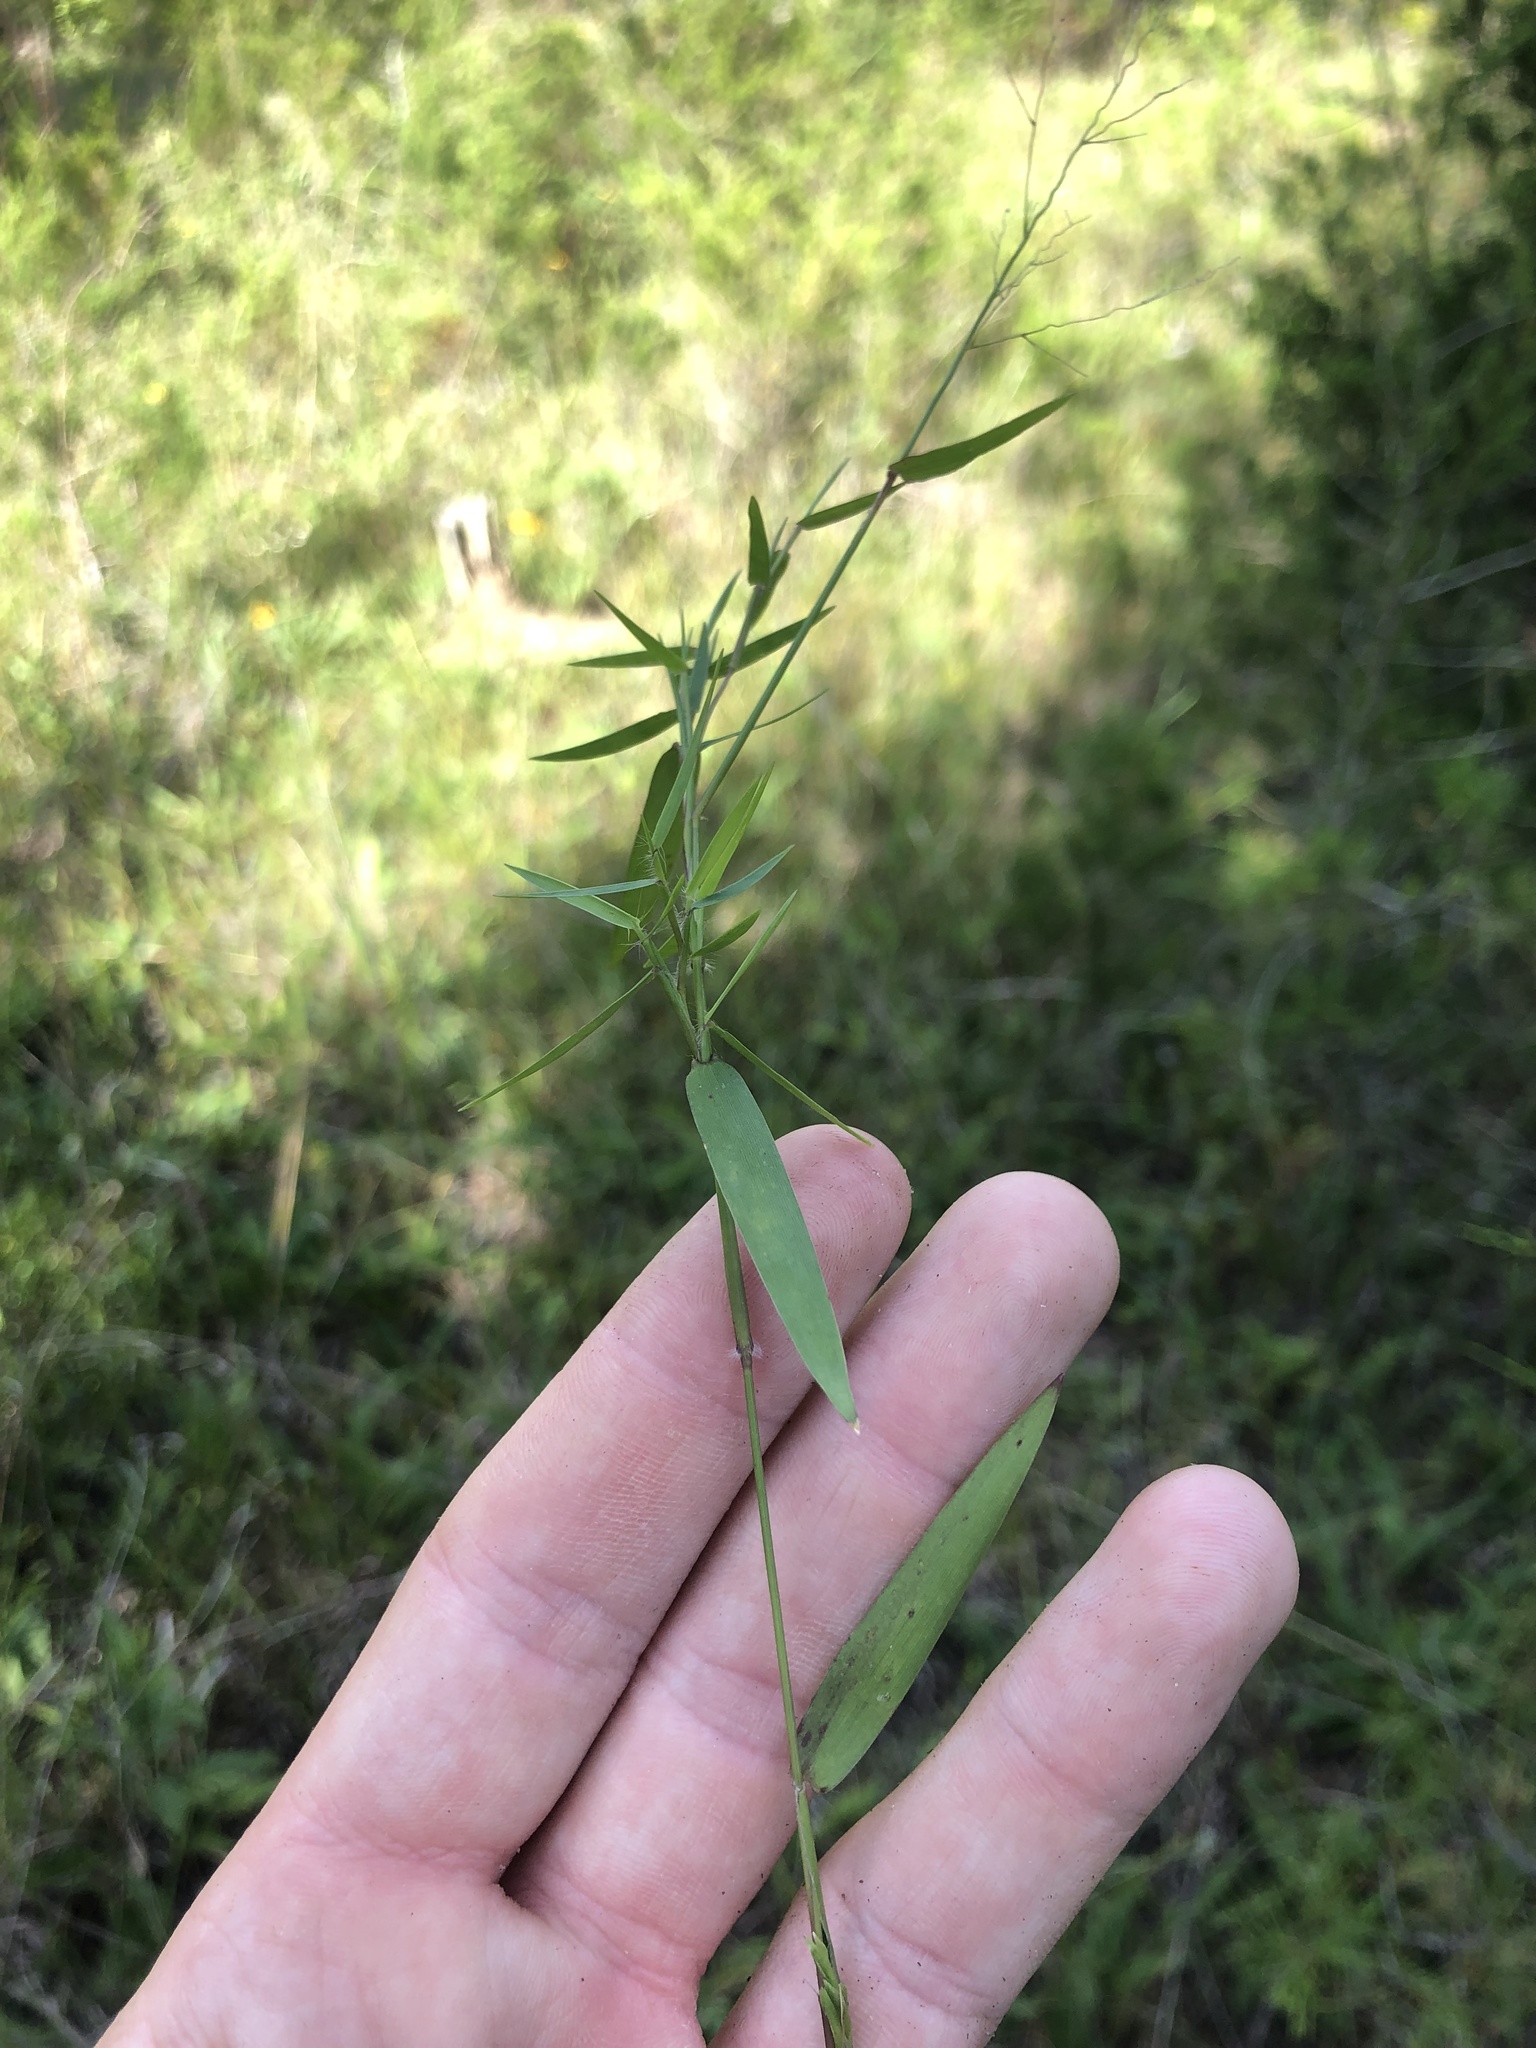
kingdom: Plantae
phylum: Tracheophyta
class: Liliopsida
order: Poales
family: Poaceae
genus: Dichanthelium
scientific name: Dichanthelium dichotomum
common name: Cypress panicgrass
